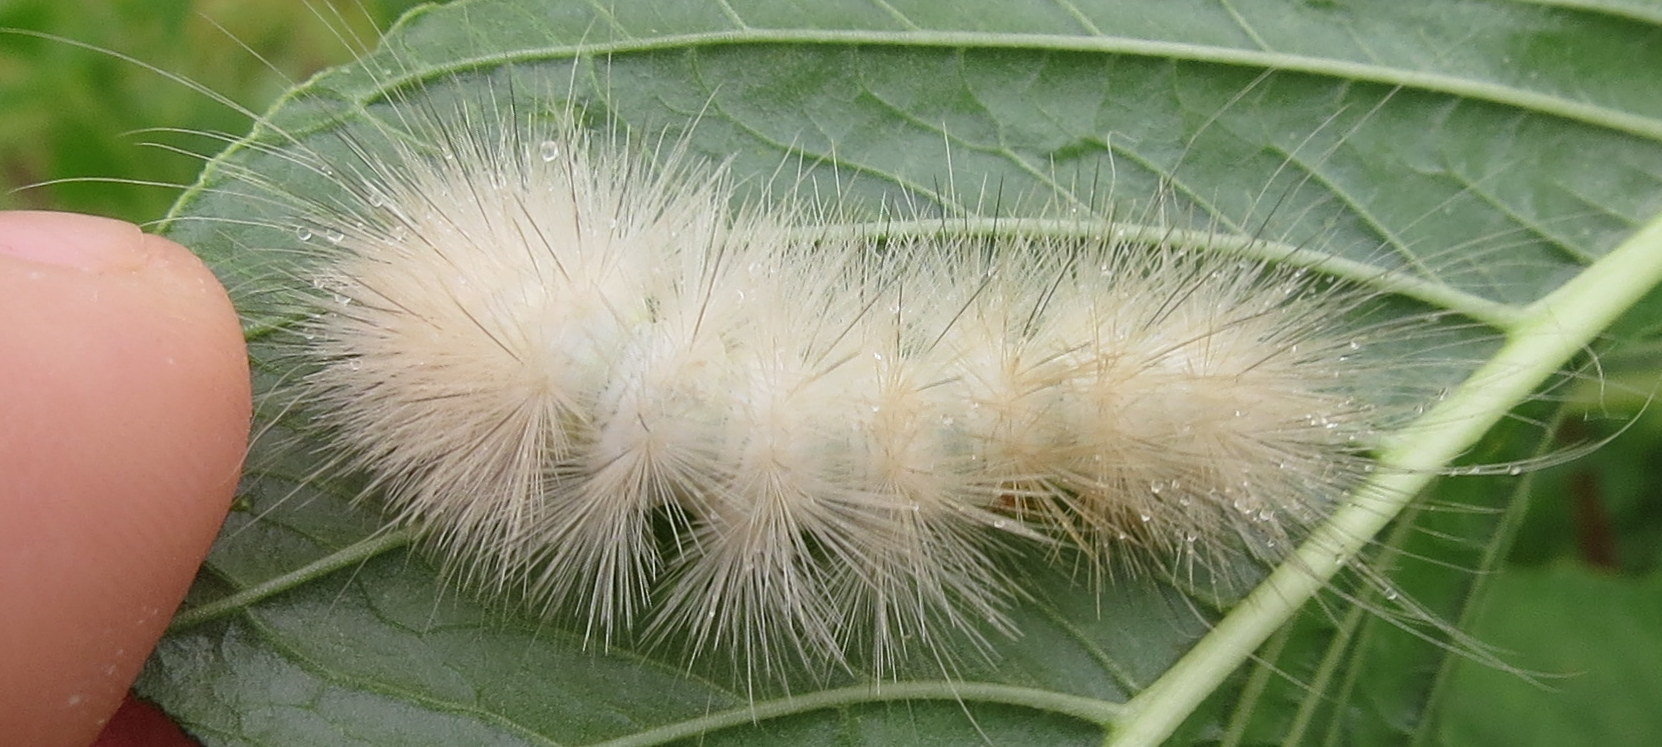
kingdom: Animalia
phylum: Arthropoda
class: Insecta
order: Lepidoptera
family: Erebidae
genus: Spilosoma
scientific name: Spilosoma virginica
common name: Virginia tiger moth
